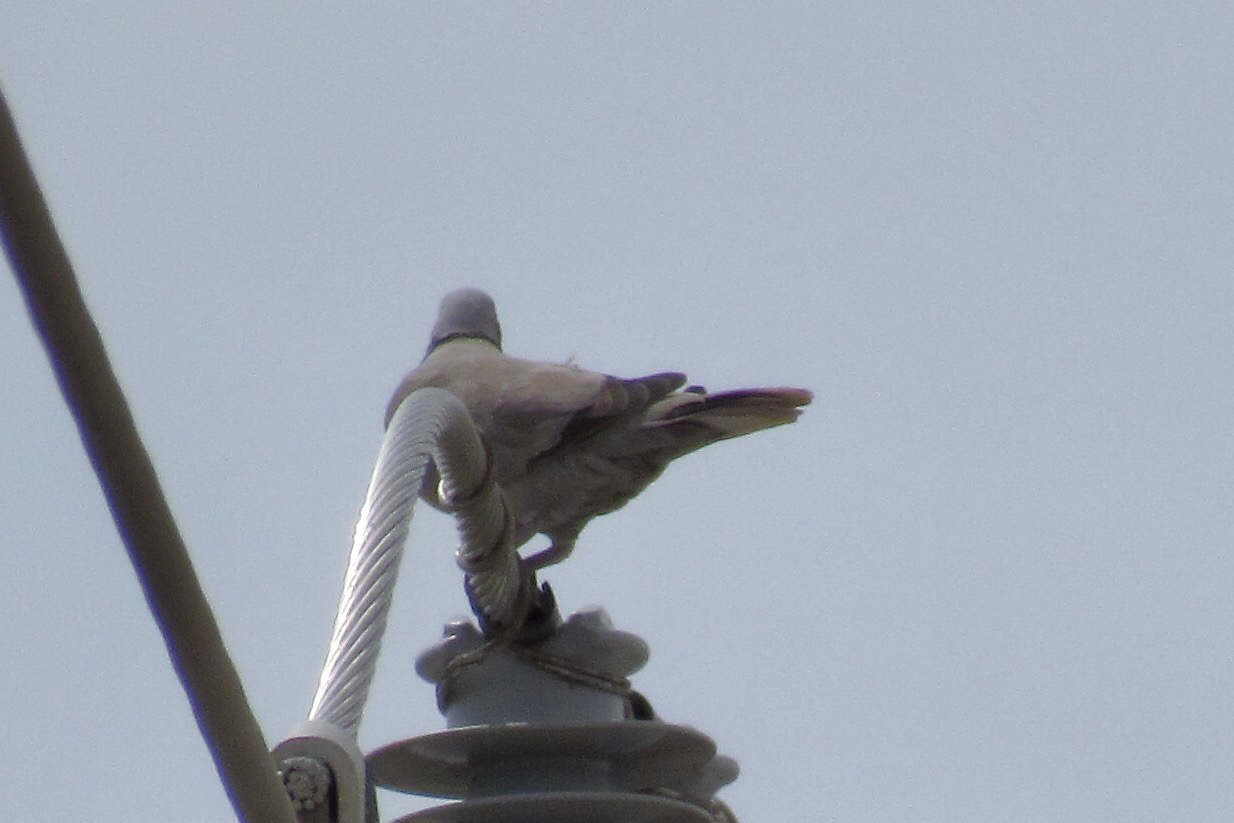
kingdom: Animalia
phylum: Chordata
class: Aves
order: Columbiformes
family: Columbidae
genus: Streptopelia
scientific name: Streptopelia decaocto
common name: Eurasian collared dove
